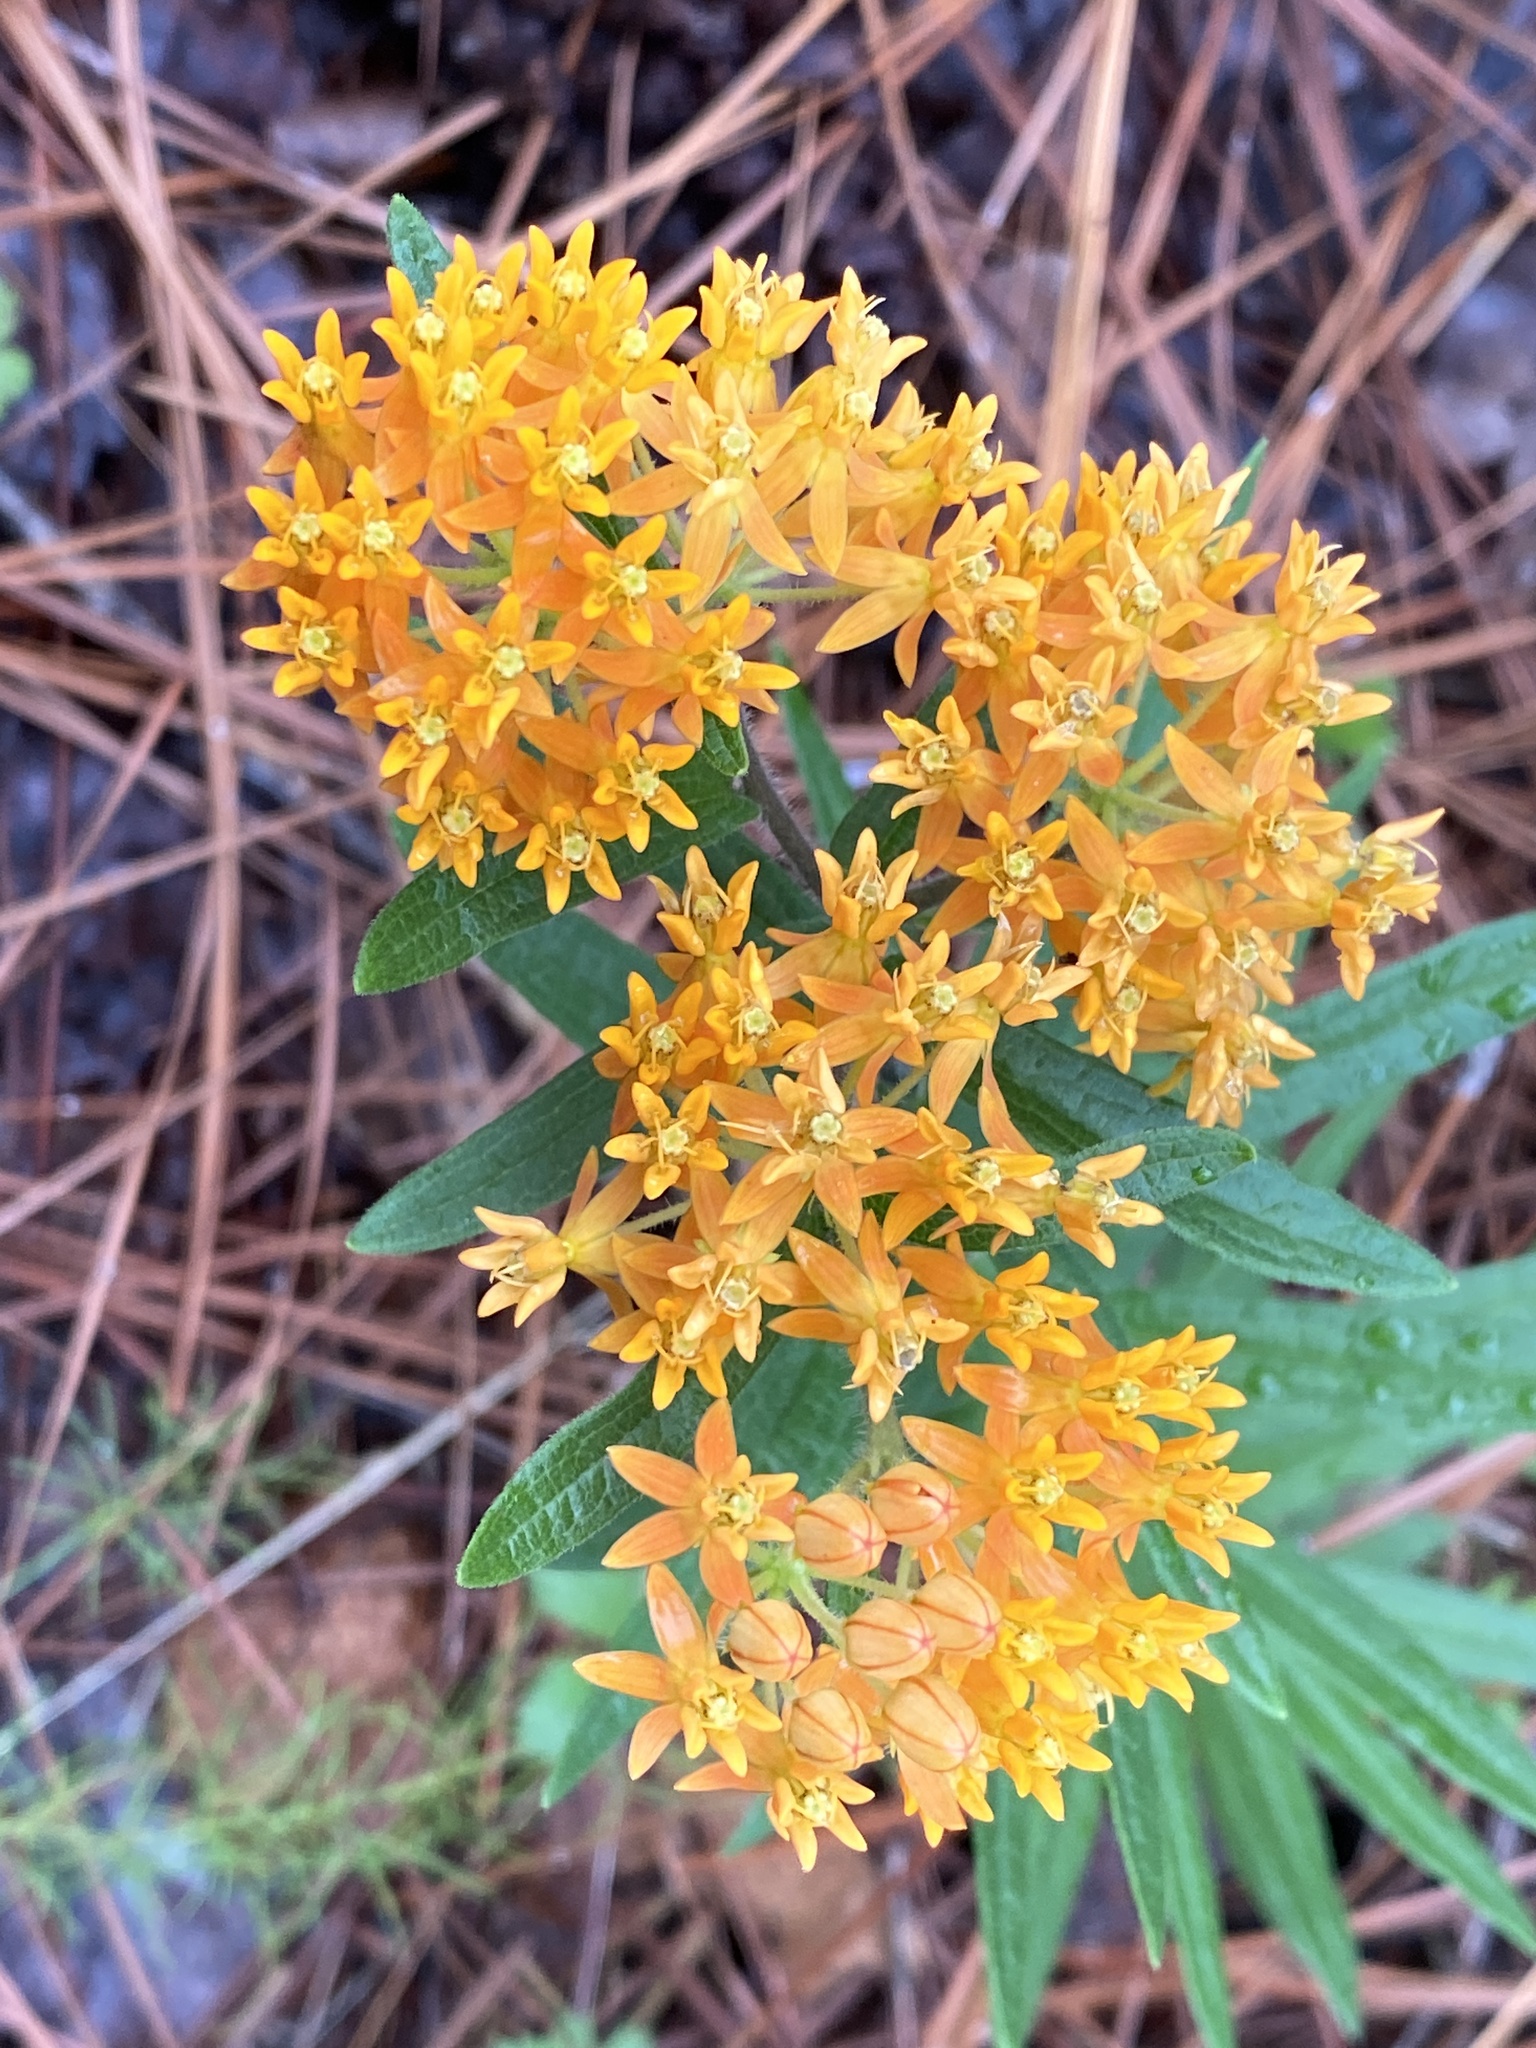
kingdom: Plantae
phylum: Tracheophyta
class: Magnoliopsida
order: Gentianales
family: Apocynaceae
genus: Asclepias
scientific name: Asclepias tuberosa
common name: Butterfly milkweed
